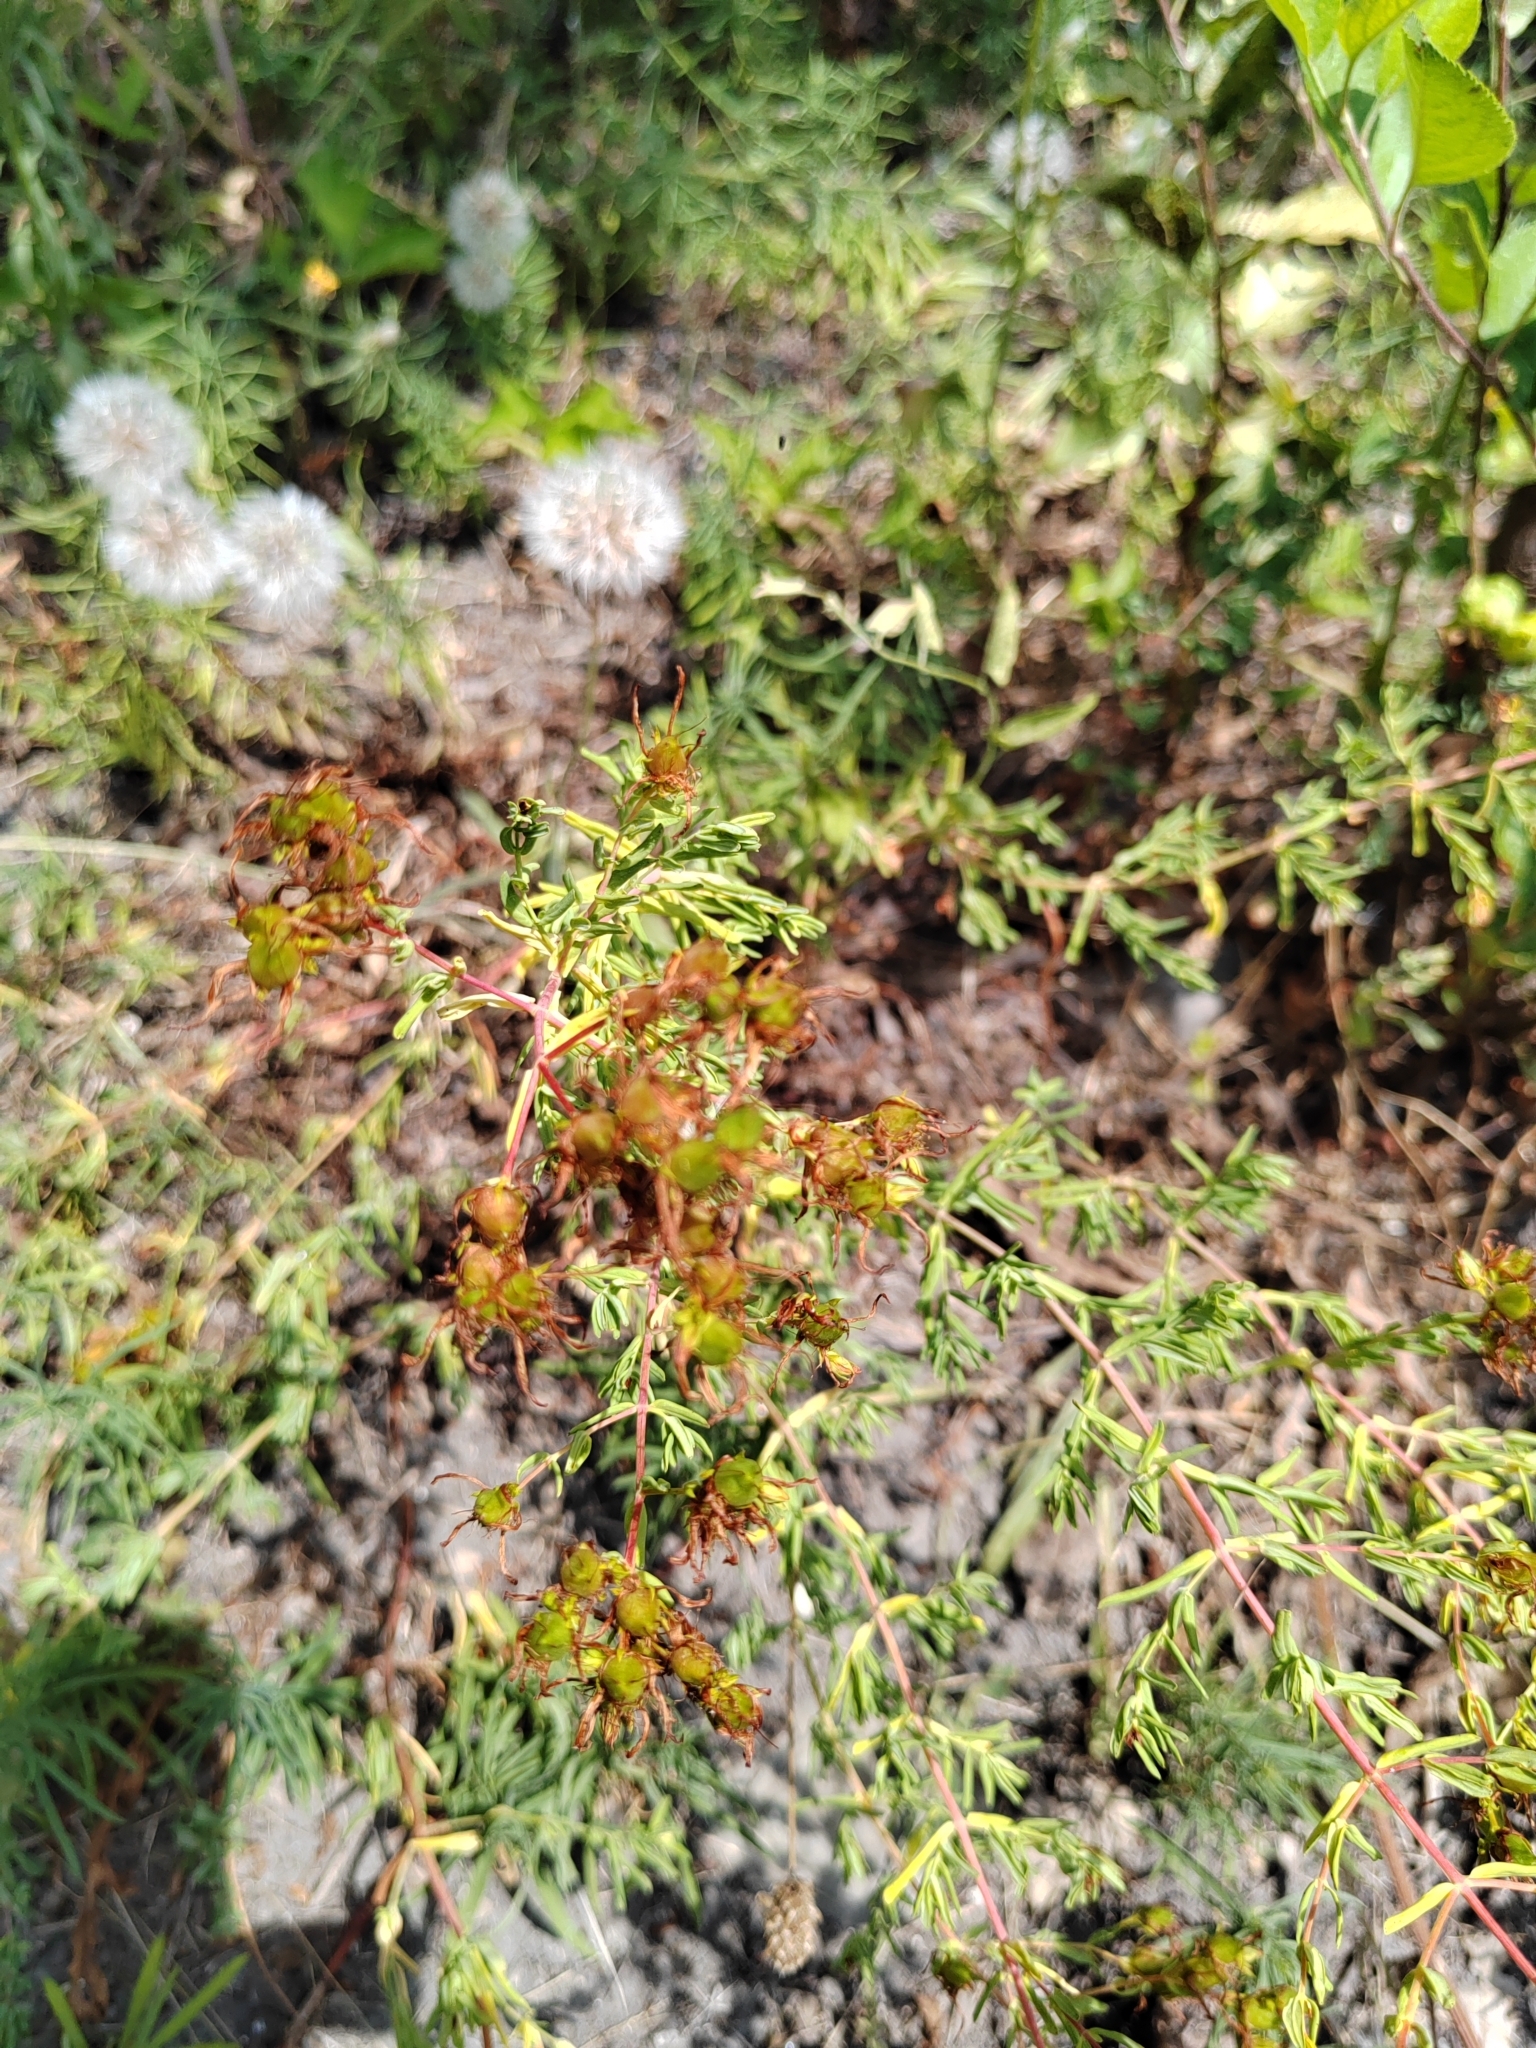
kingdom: Plantae
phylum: Tracheophyta
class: Magnoliopsida
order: Malpighiales
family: Hypericaceae
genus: Hypericum
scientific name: Hypericum perforatum
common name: Common st. johnswort
